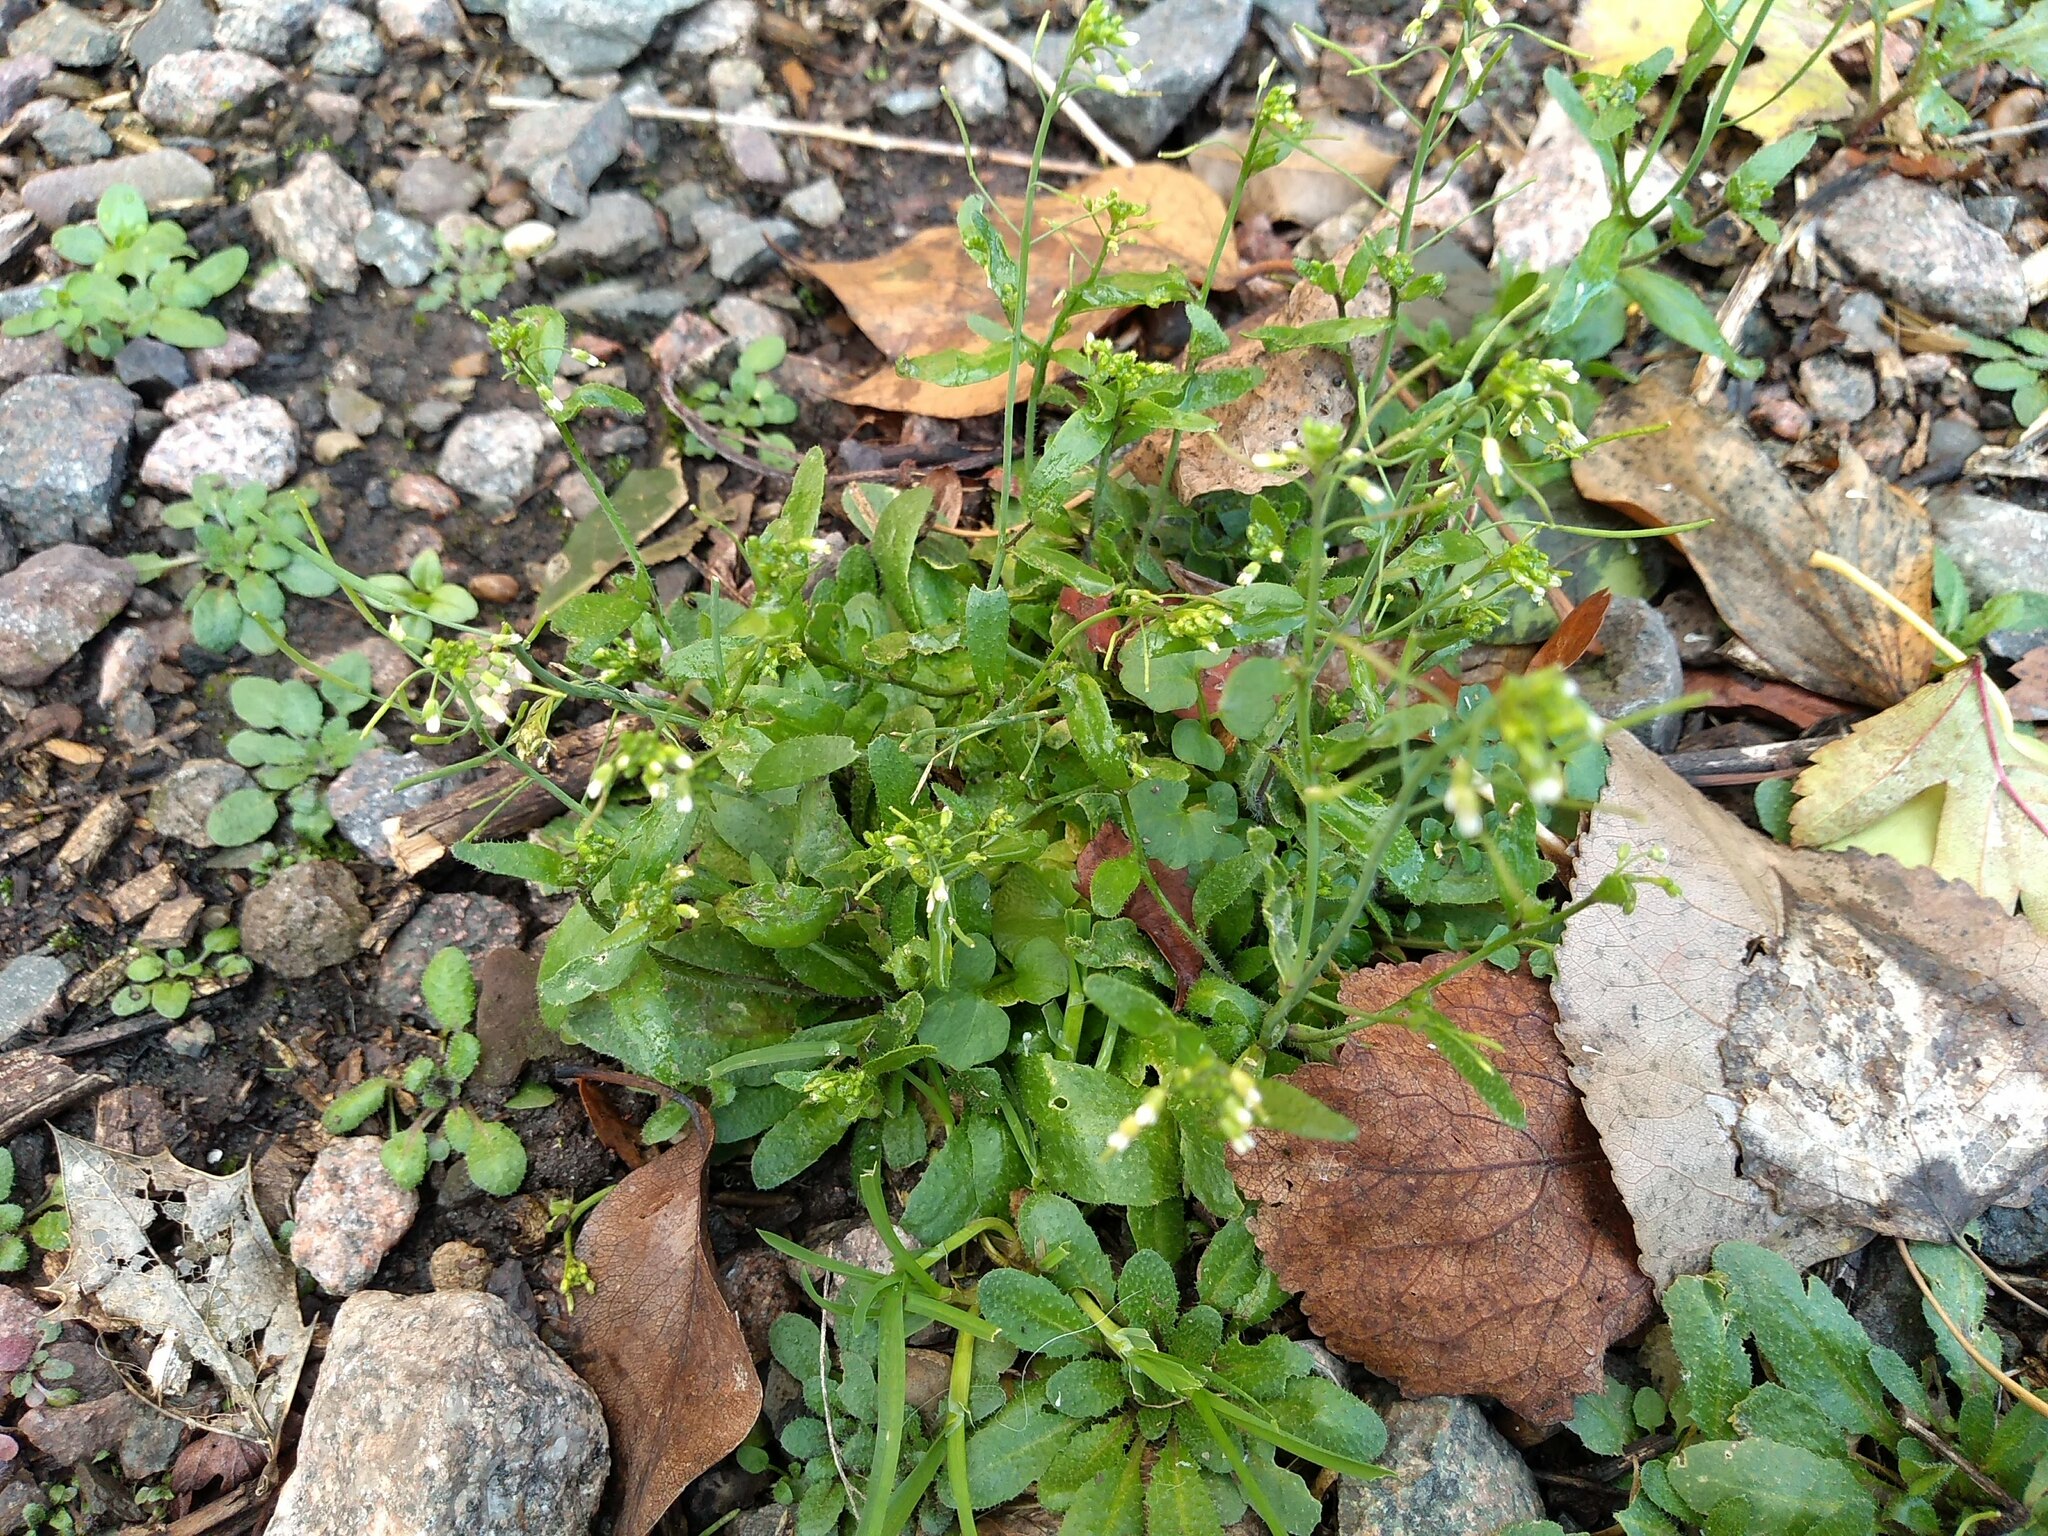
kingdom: Plantae
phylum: Tracheophyta
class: Magnoliopsida
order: Brassicales
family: Brassicaceae
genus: Arabidopsis
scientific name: Arabidopsis thaliana
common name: Thale cress
